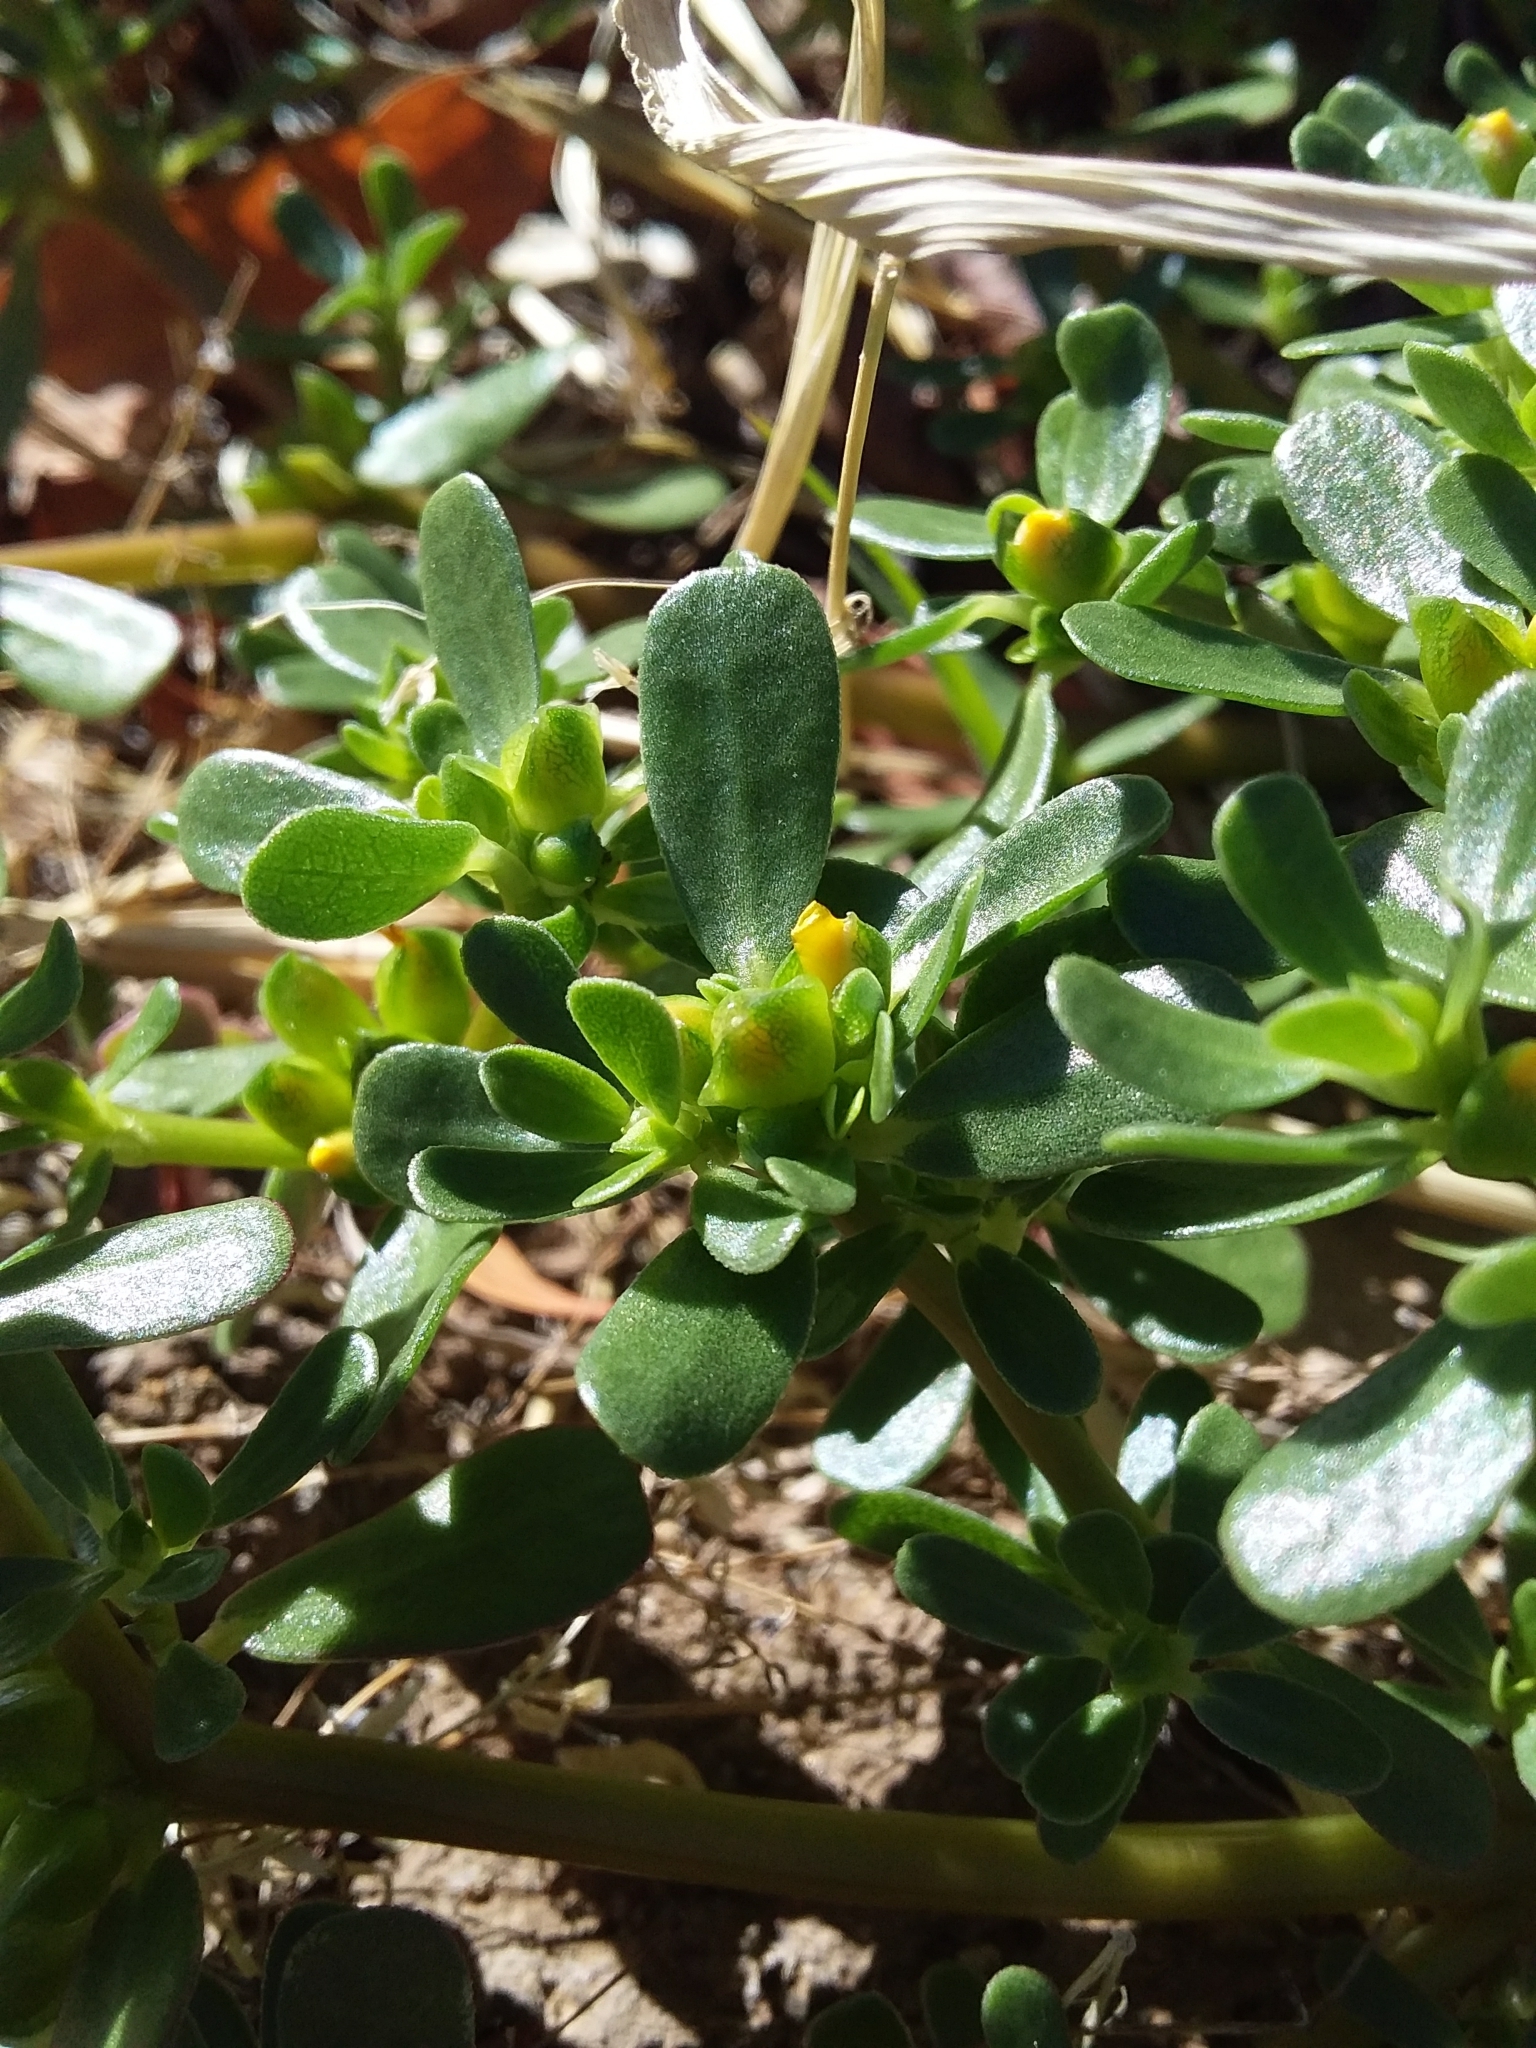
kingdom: Plantae
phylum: Tracheophyta
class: Magnoliopsida
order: Caryophyllales
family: Portulacaceae
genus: Portulaca
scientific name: Portulaca oleracea
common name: Common purslane
